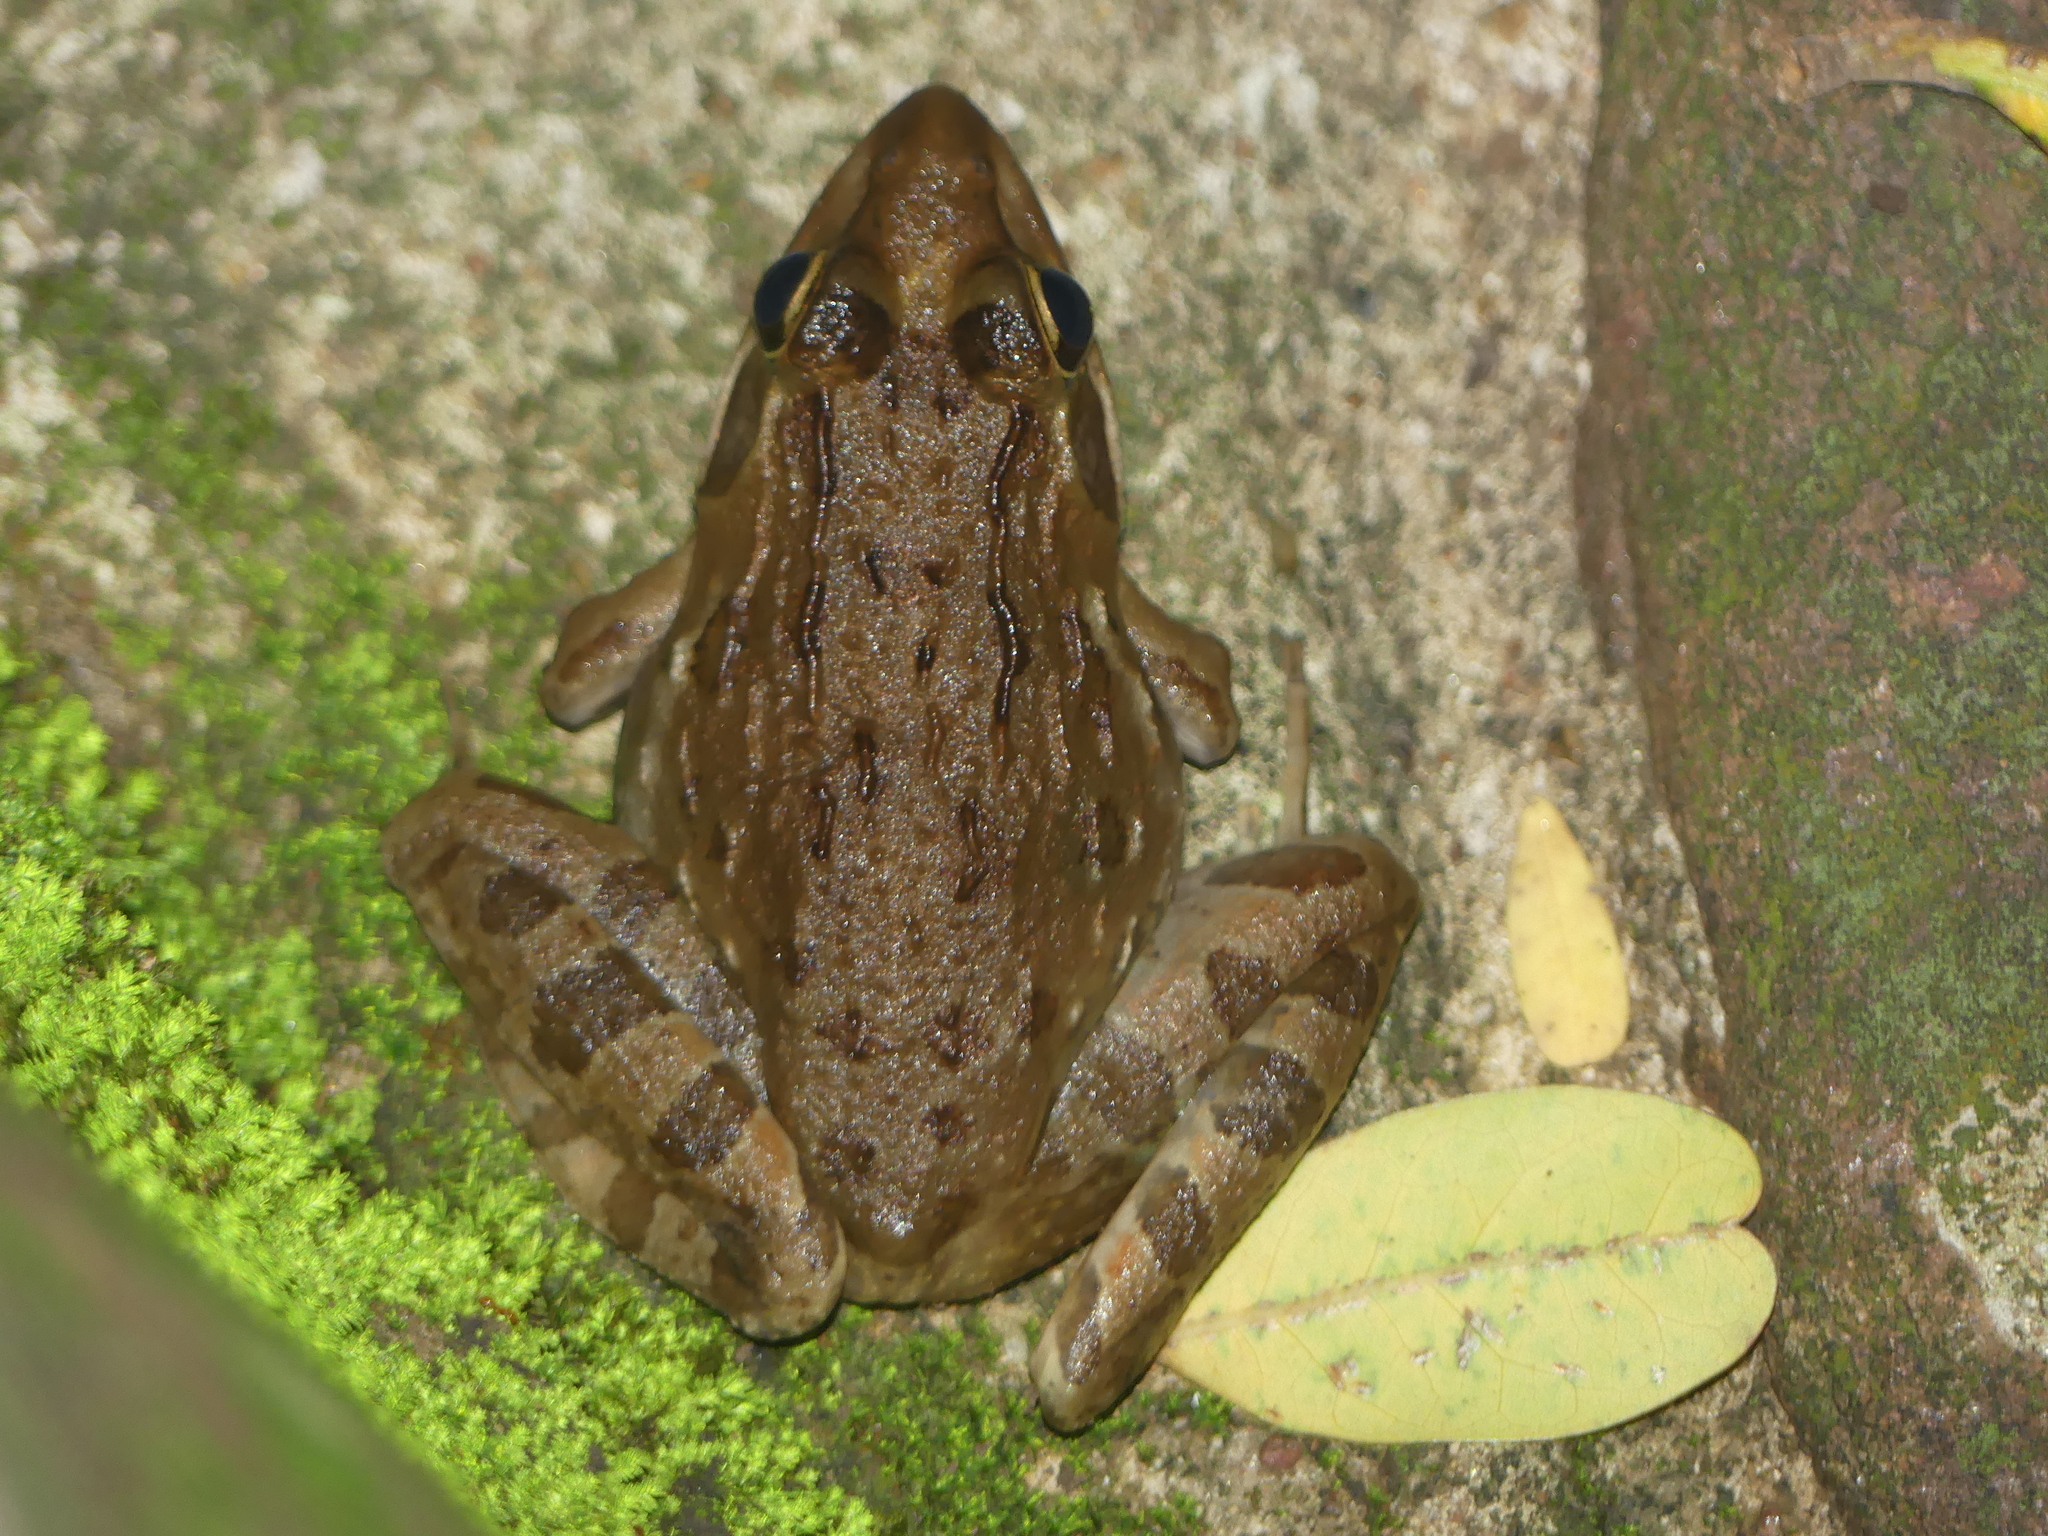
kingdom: Animalia
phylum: Chordata
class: Amphibia
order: Anura
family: Pyxicephalidae
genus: Amietia
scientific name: Amietia delalandii
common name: Delalande's river frog
